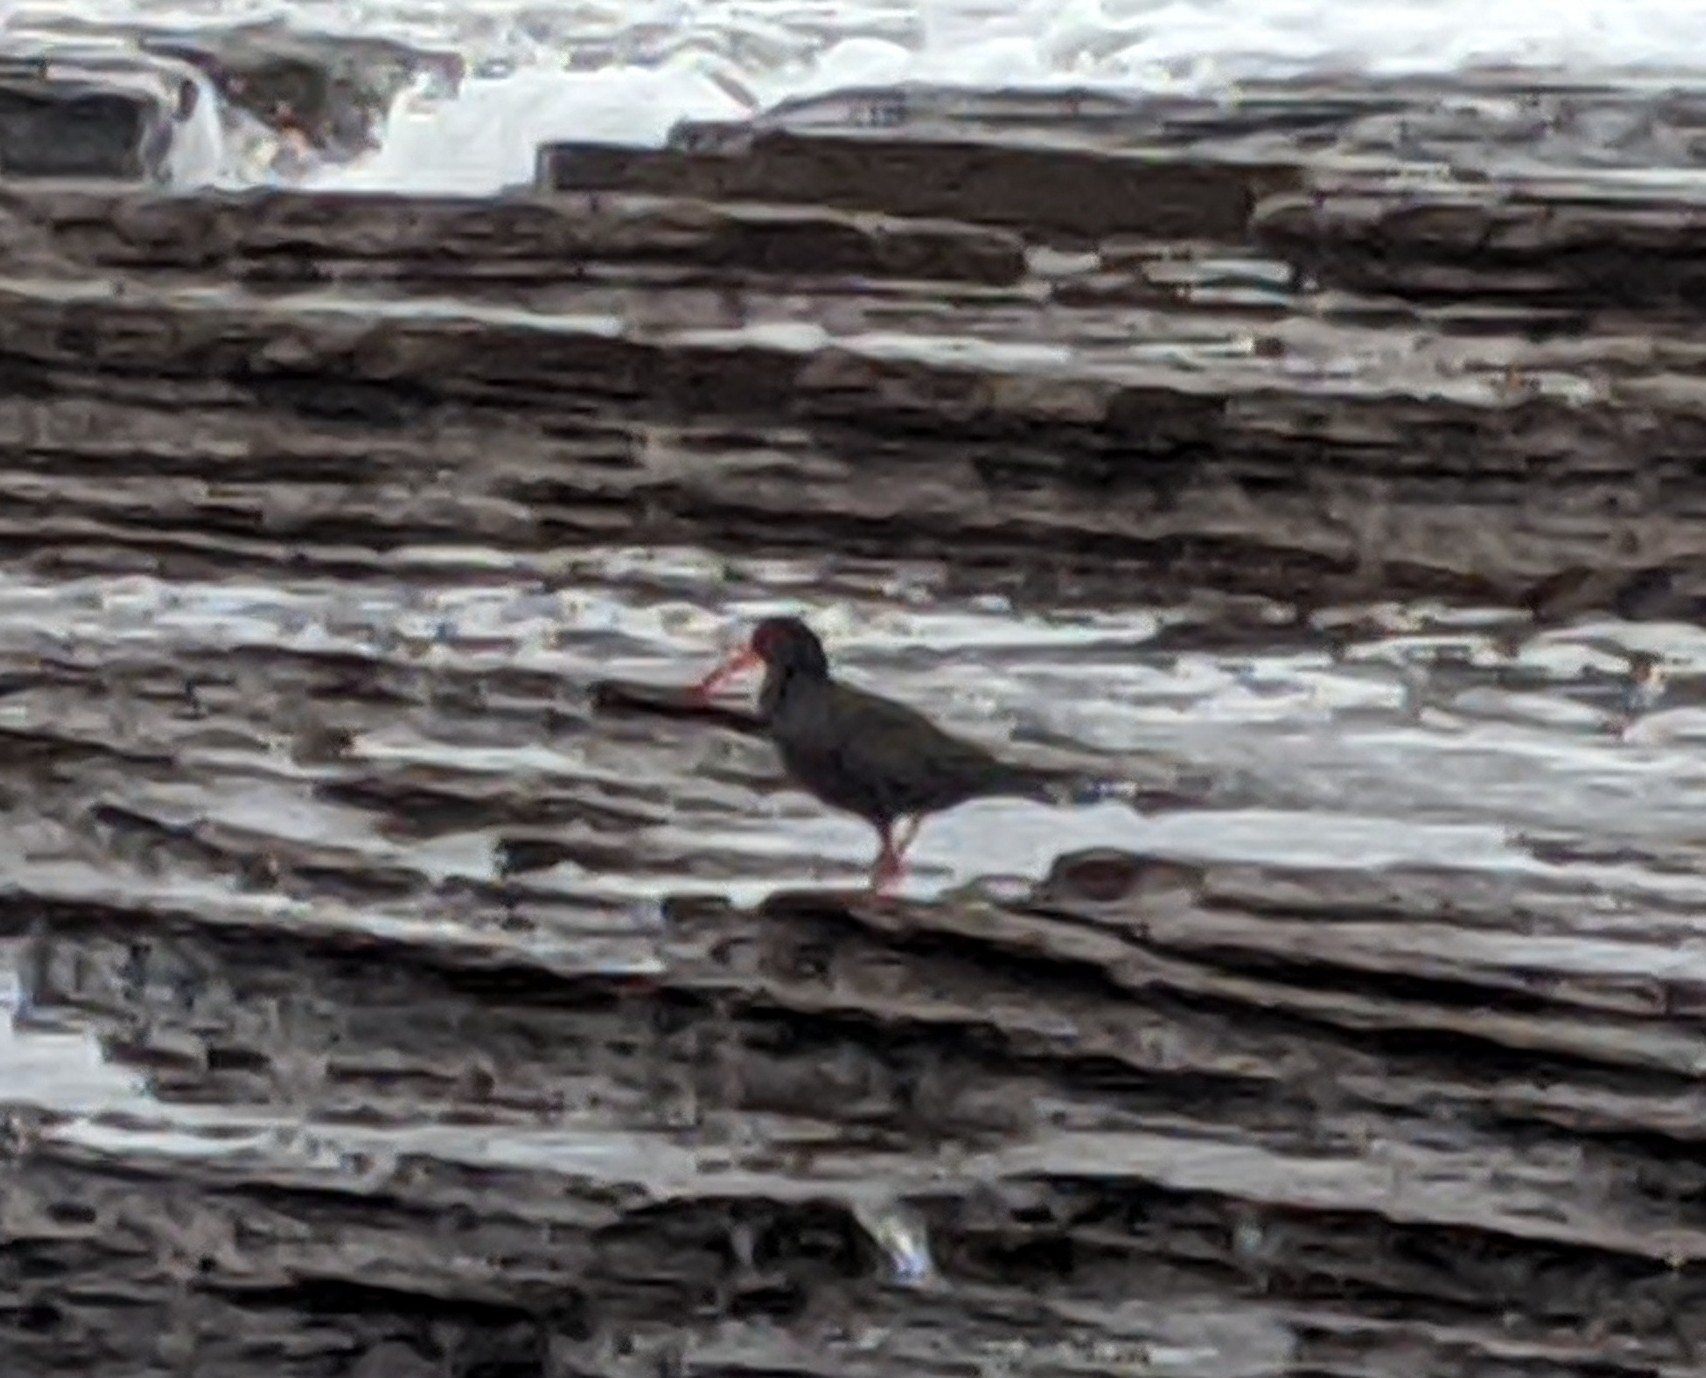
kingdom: Animalia
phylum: Chordata
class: Aves
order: Charadriiformes
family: Haematopodidae
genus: Haematopus
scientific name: Haematopus fuliginosus
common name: Sooty oystercatcher
